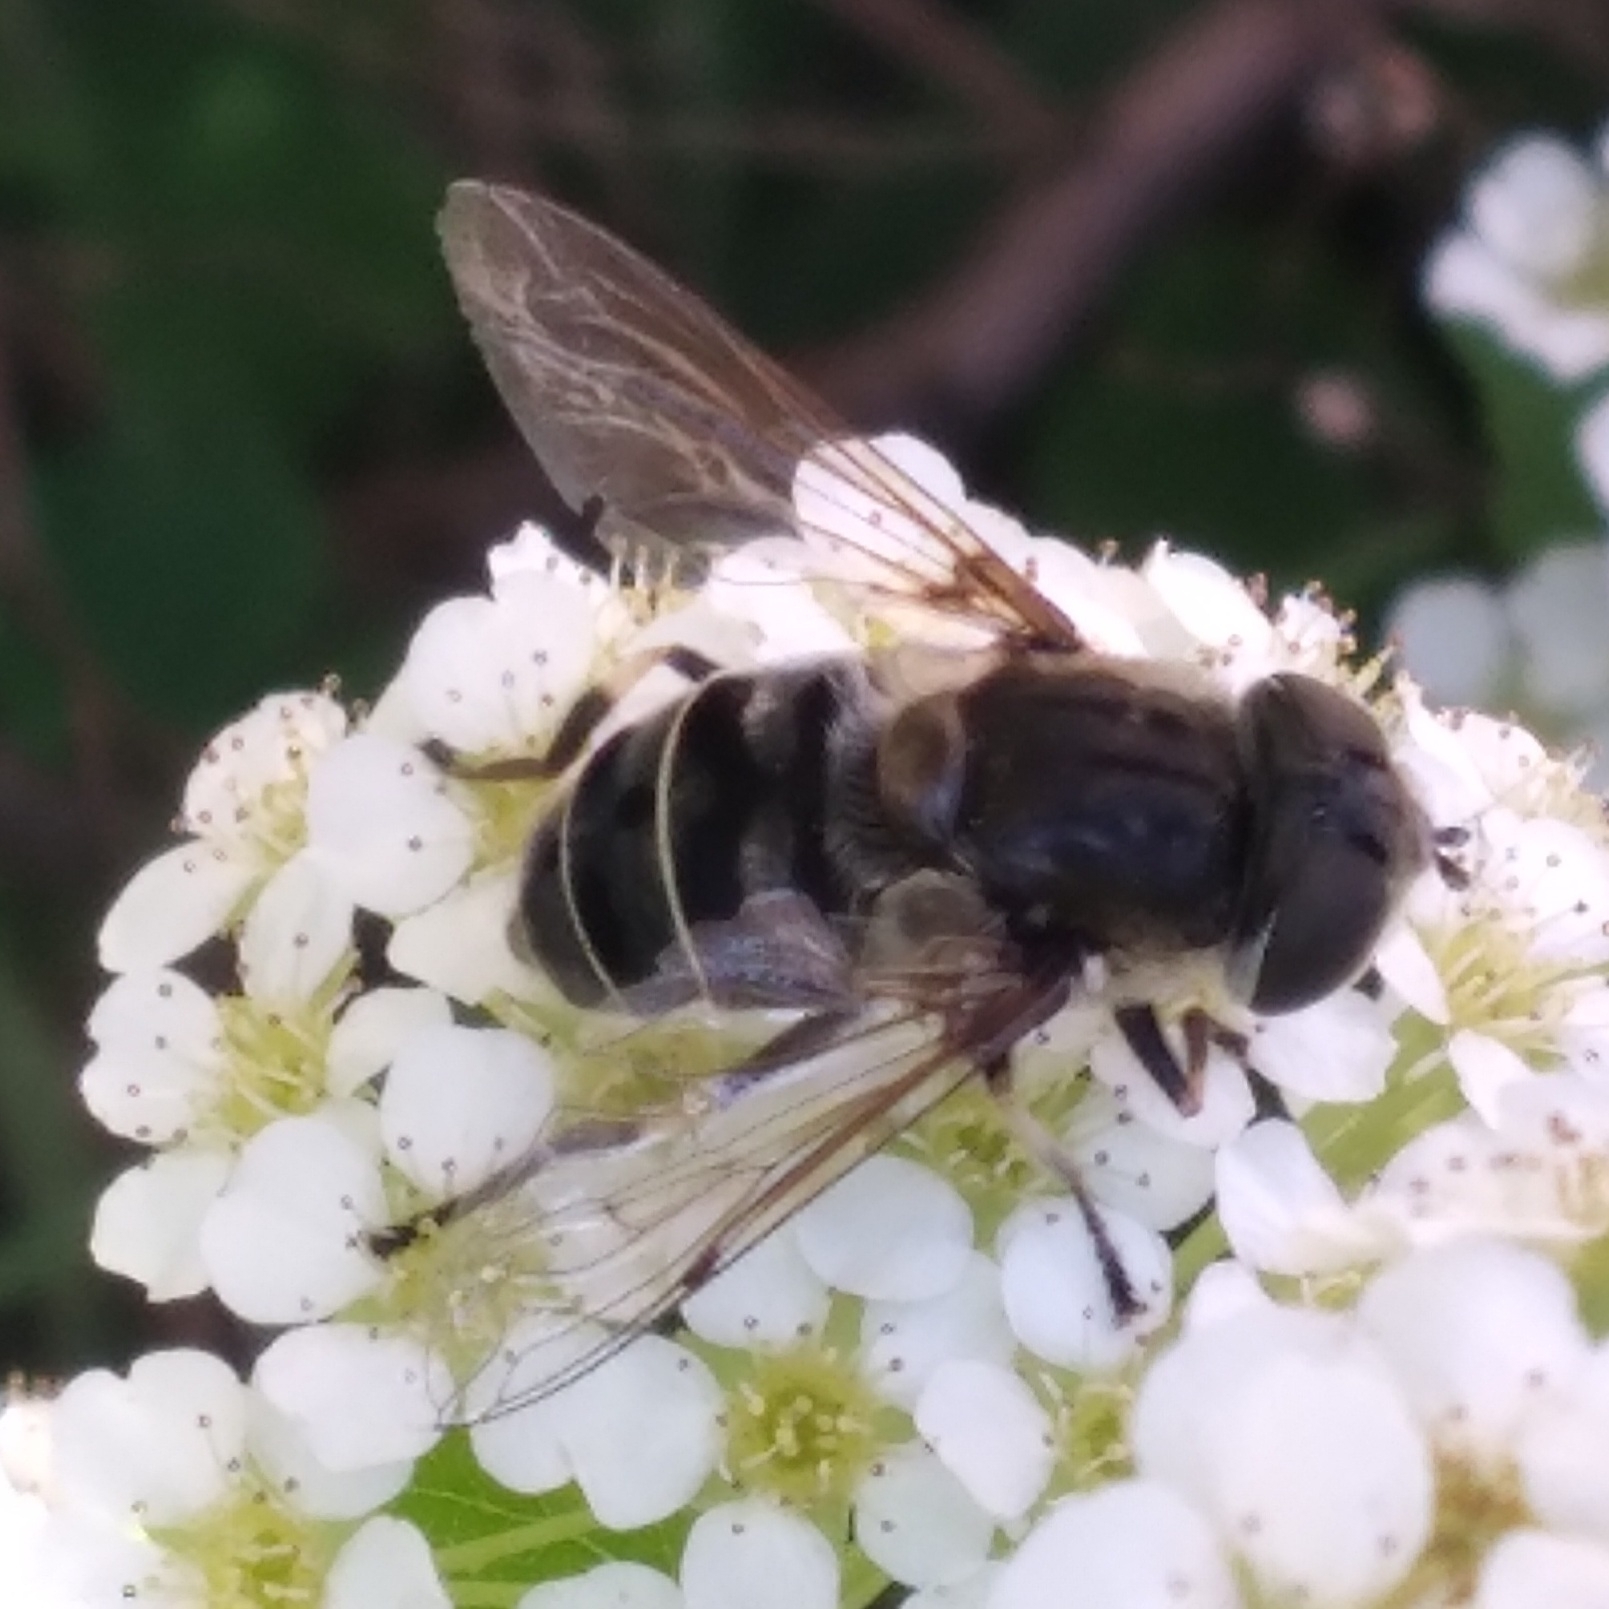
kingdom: Animalia
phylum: Arthropoda
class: Insecta
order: Diptera
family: Syrphidae
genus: Eristalis
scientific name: Eristalis dimidiata
